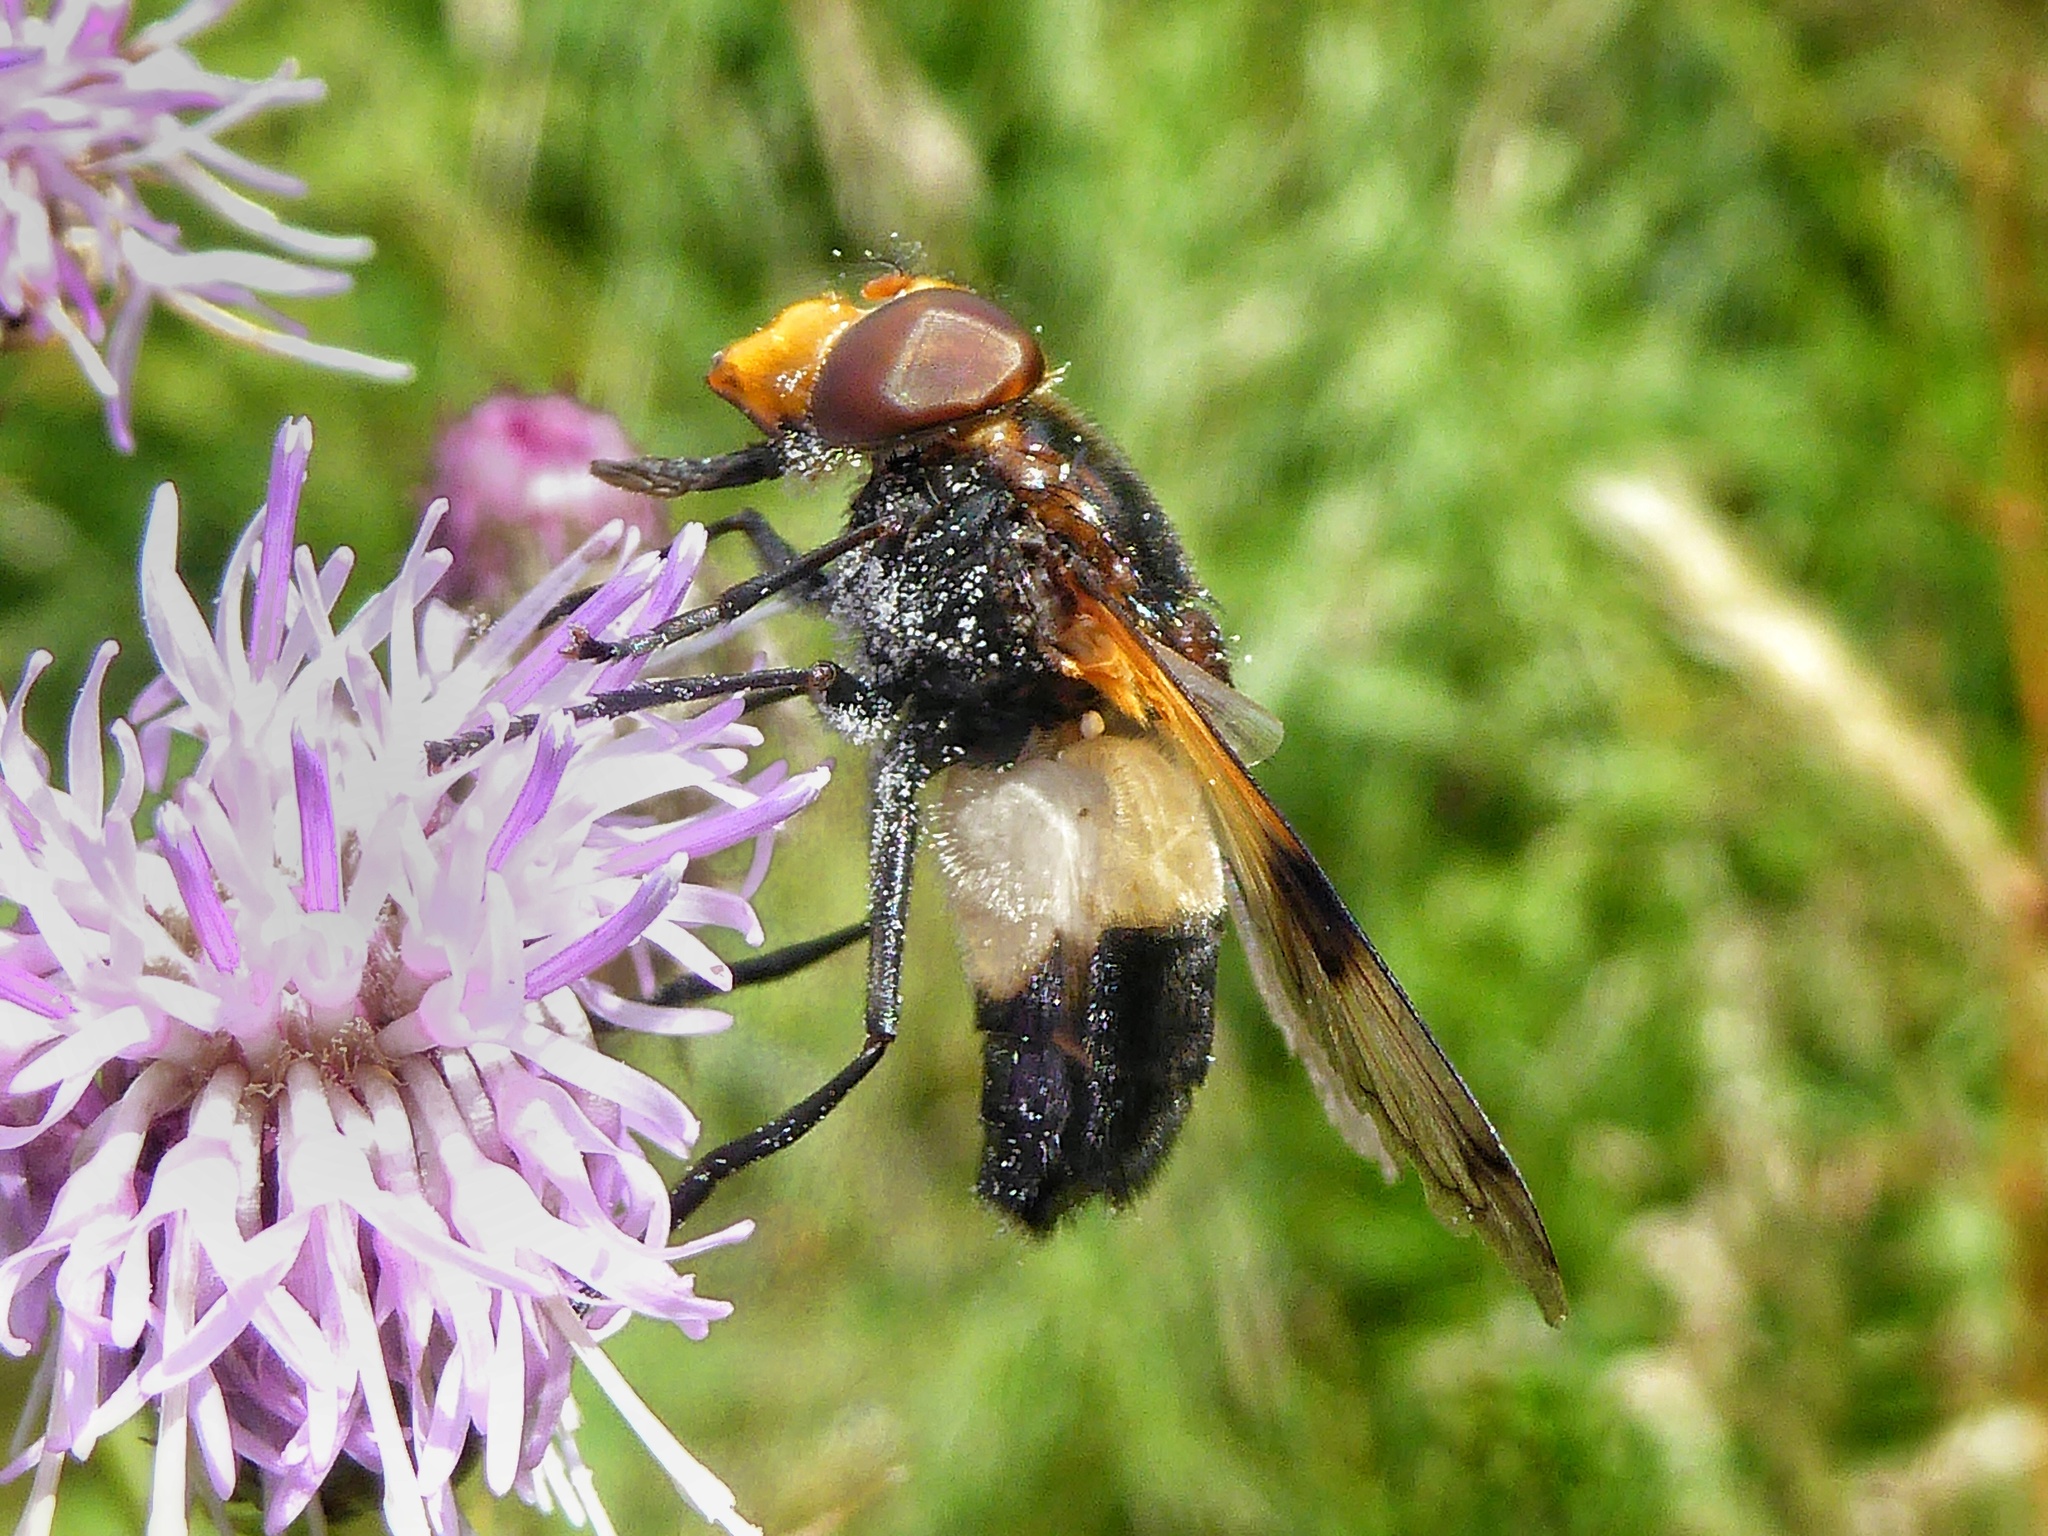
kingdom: Animalia
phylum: Arthropoda
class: Insecta
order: Diptera
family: Syrphidae
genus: Volucella
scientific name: Volucella pellucens
